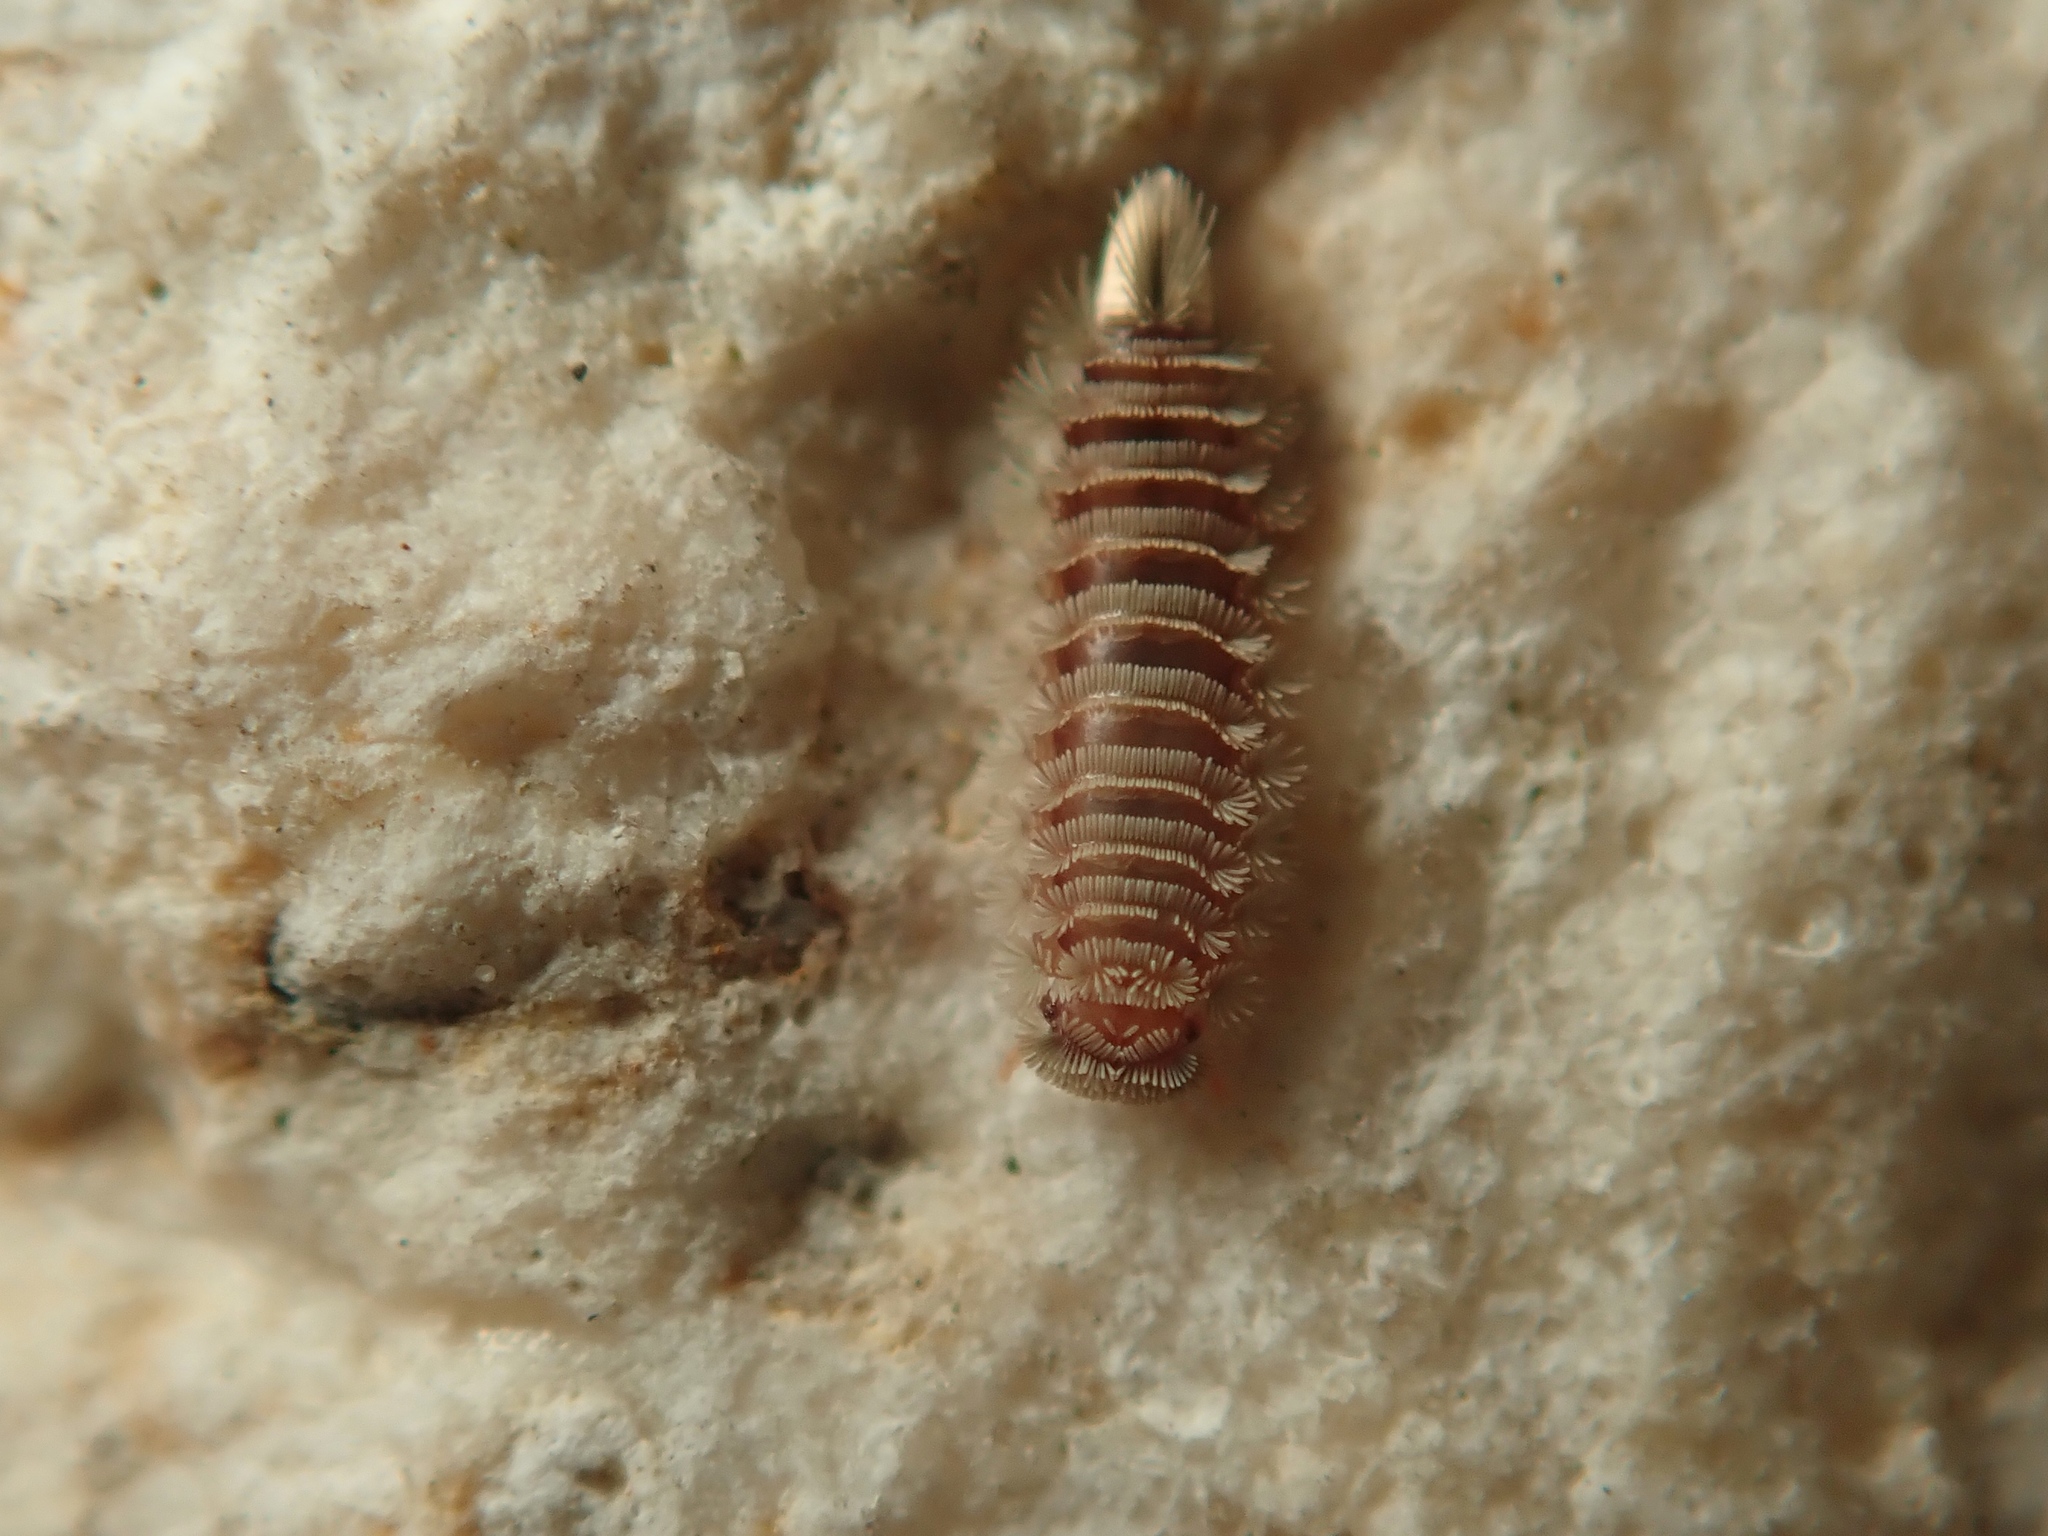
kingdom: Animalia
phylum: Arthropoda
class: Diplopoda
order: Polyxenida
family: Polyxenidae
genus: Polyxenus
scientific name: Polyxenus lagurus
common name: Bristly millipede
